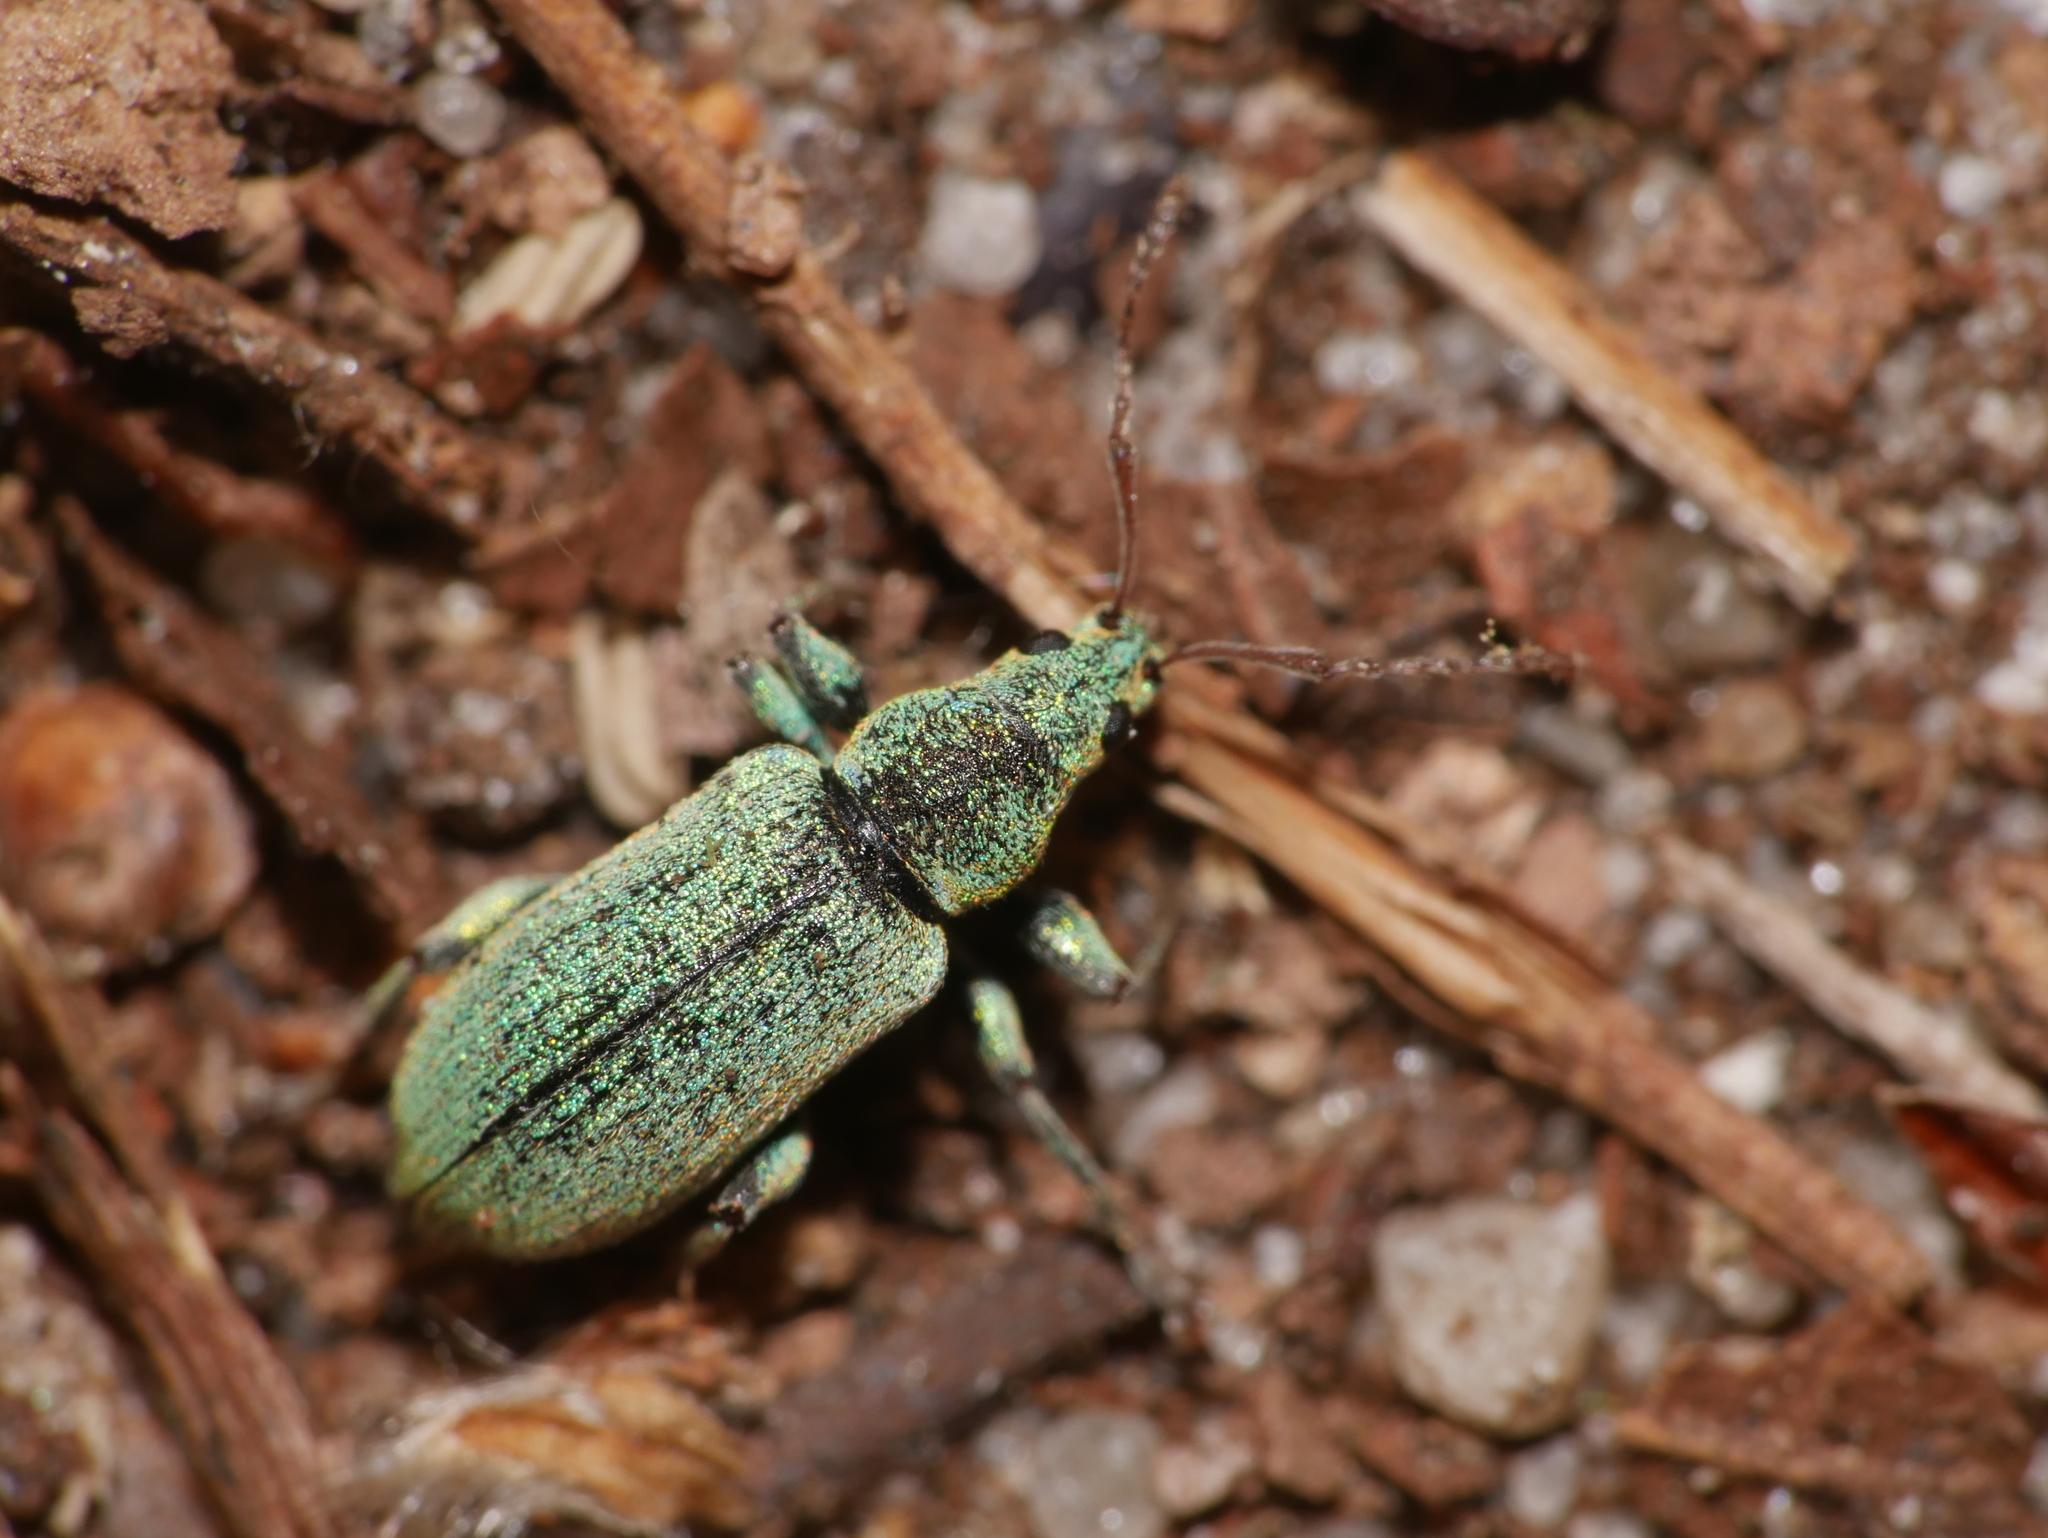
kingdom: Animalia
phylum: Arthropoda
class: Insecta
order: Coleoptera
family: Curculionidae
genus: Phyllobius
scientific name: Phyllobius argentatus
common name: Silver-green leaf weevil
